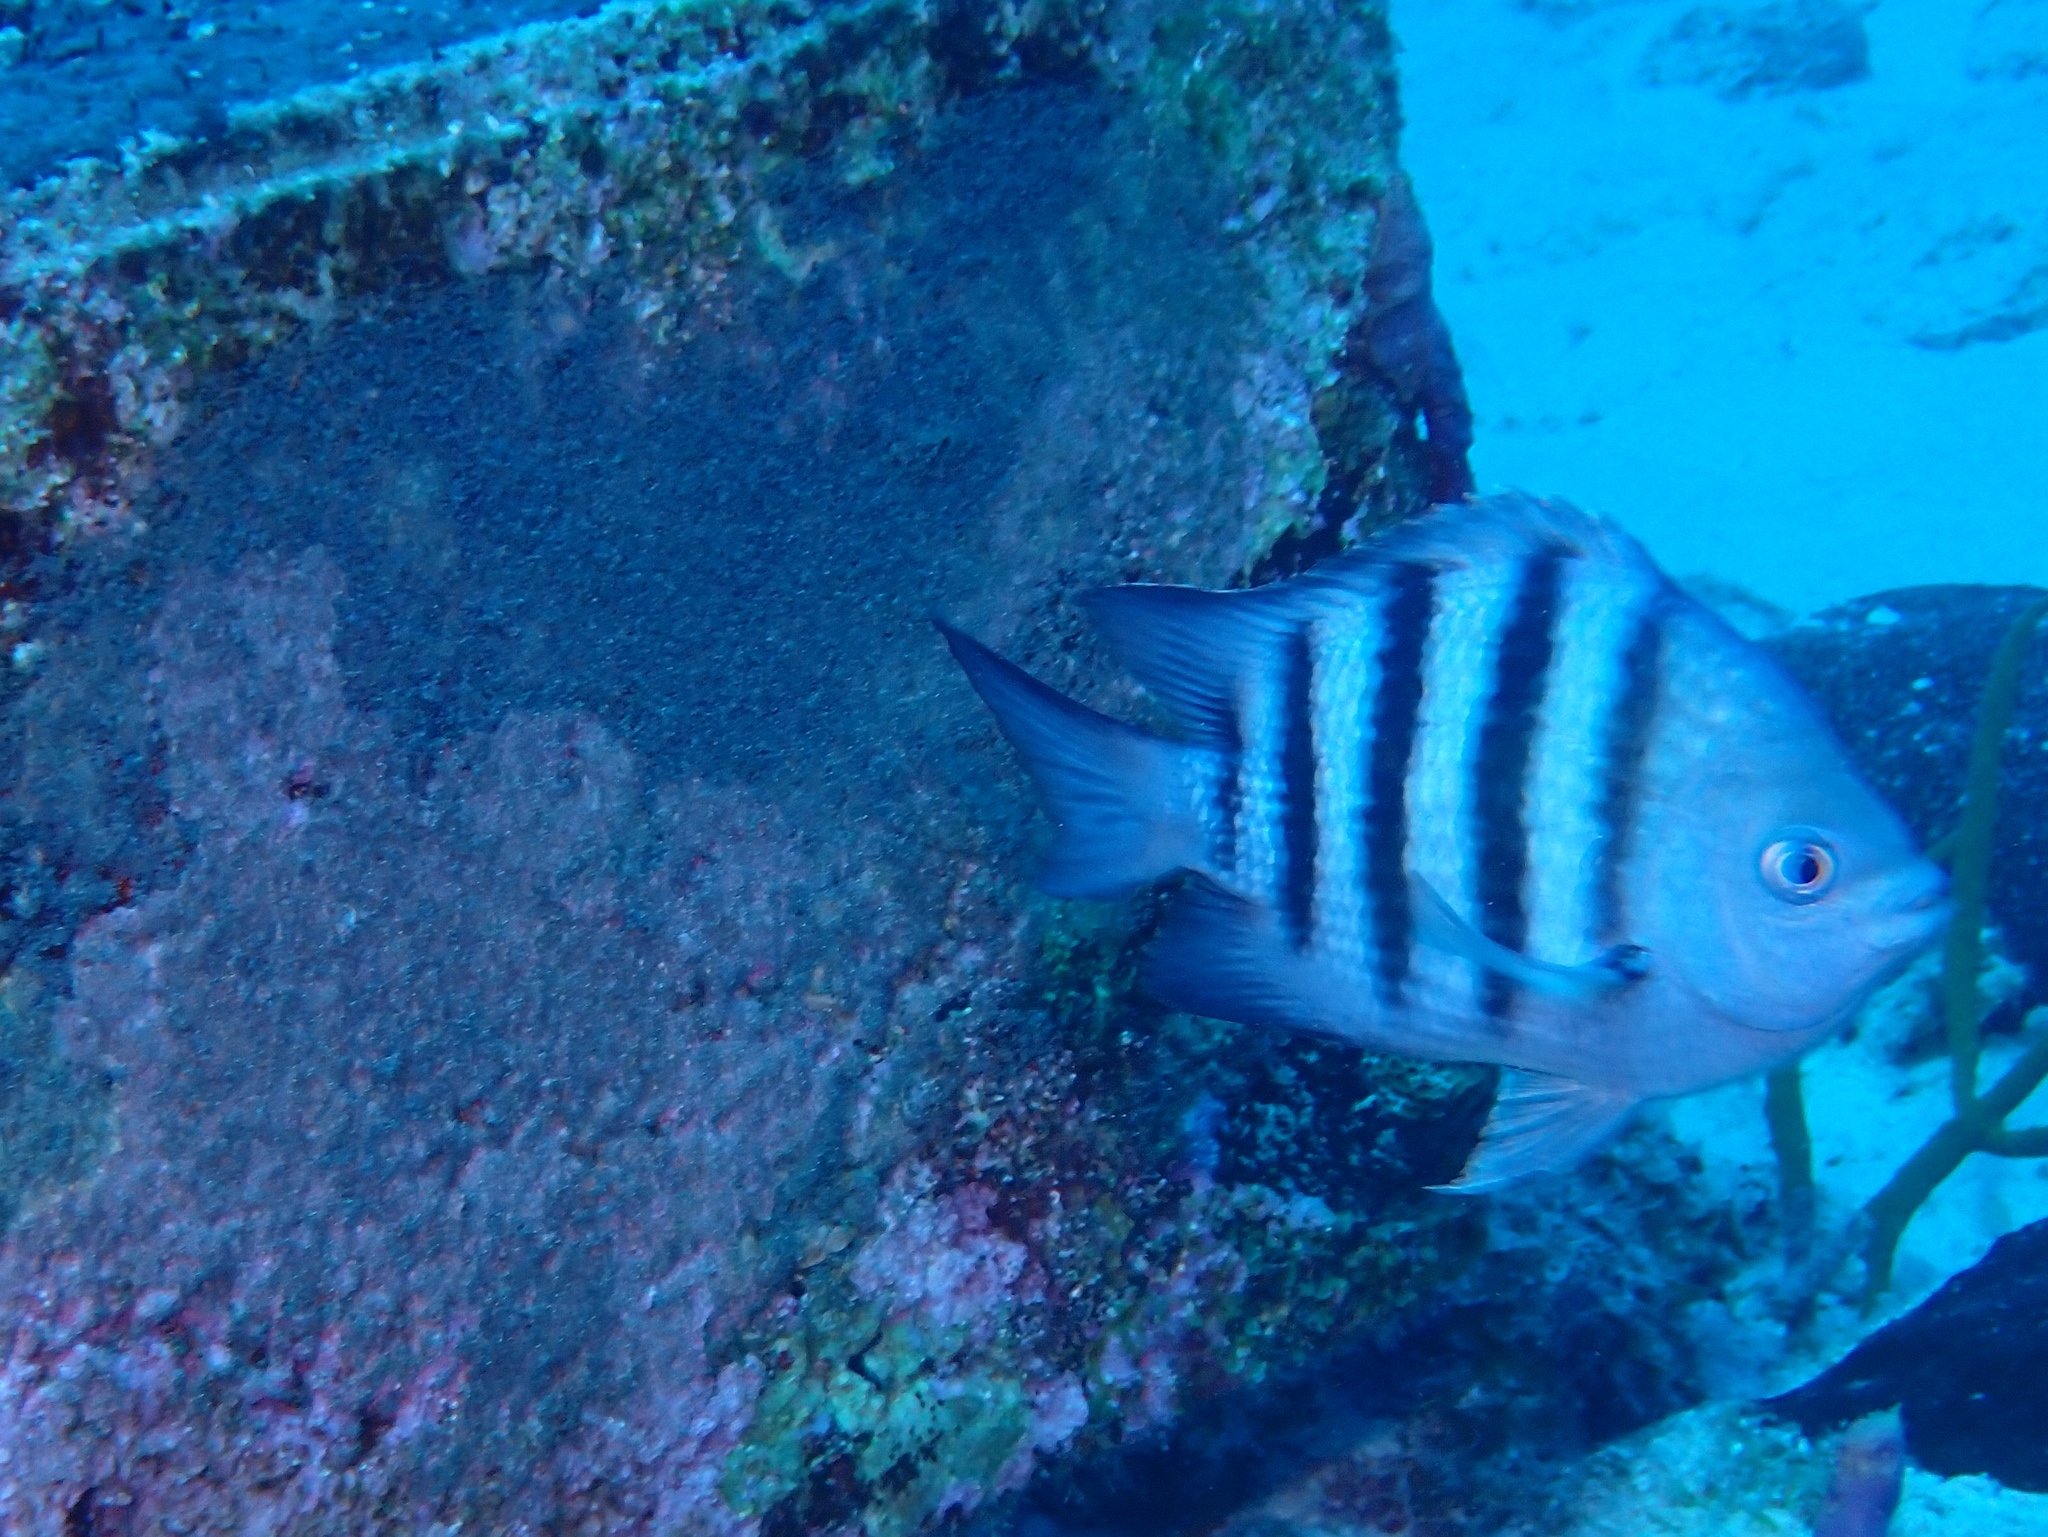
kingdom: Animalia
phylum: Chordata
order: Perciformes
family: Pomacentridae
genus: Abudefduf
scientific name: Abudefduf saxatilis
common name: Sergeant major
